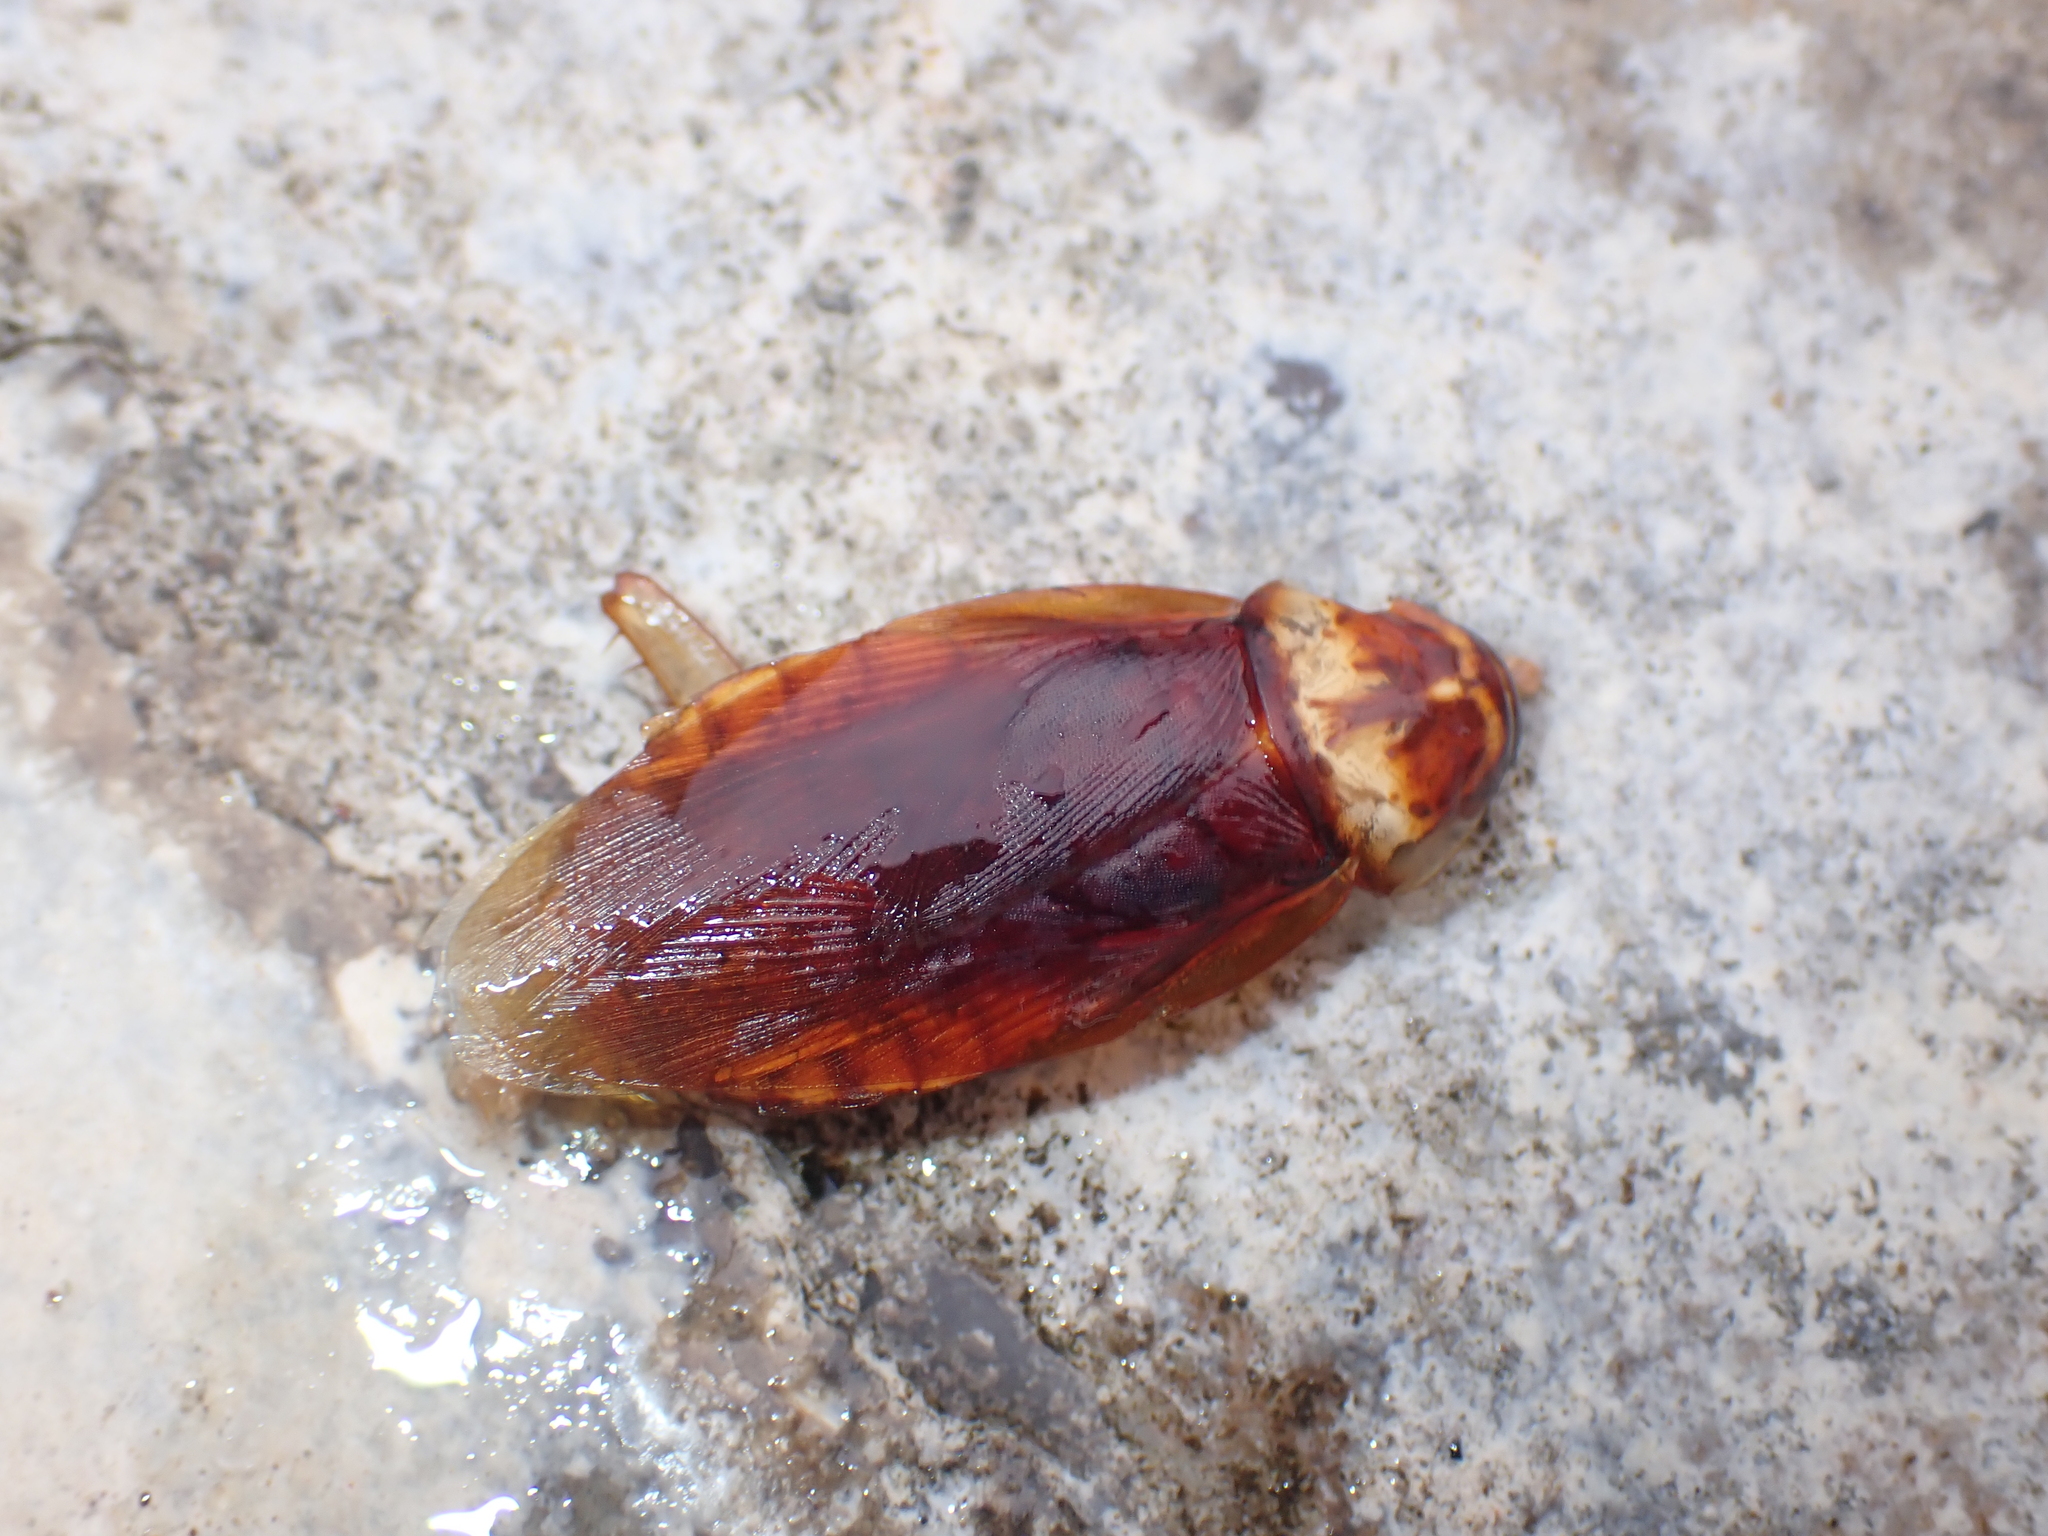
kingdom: Animalia
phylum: Arthropoda
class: Insecta
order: Blattodea
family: Blattidae
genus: Periplaneta
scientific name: Periplaneta americana
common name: American cockroach
